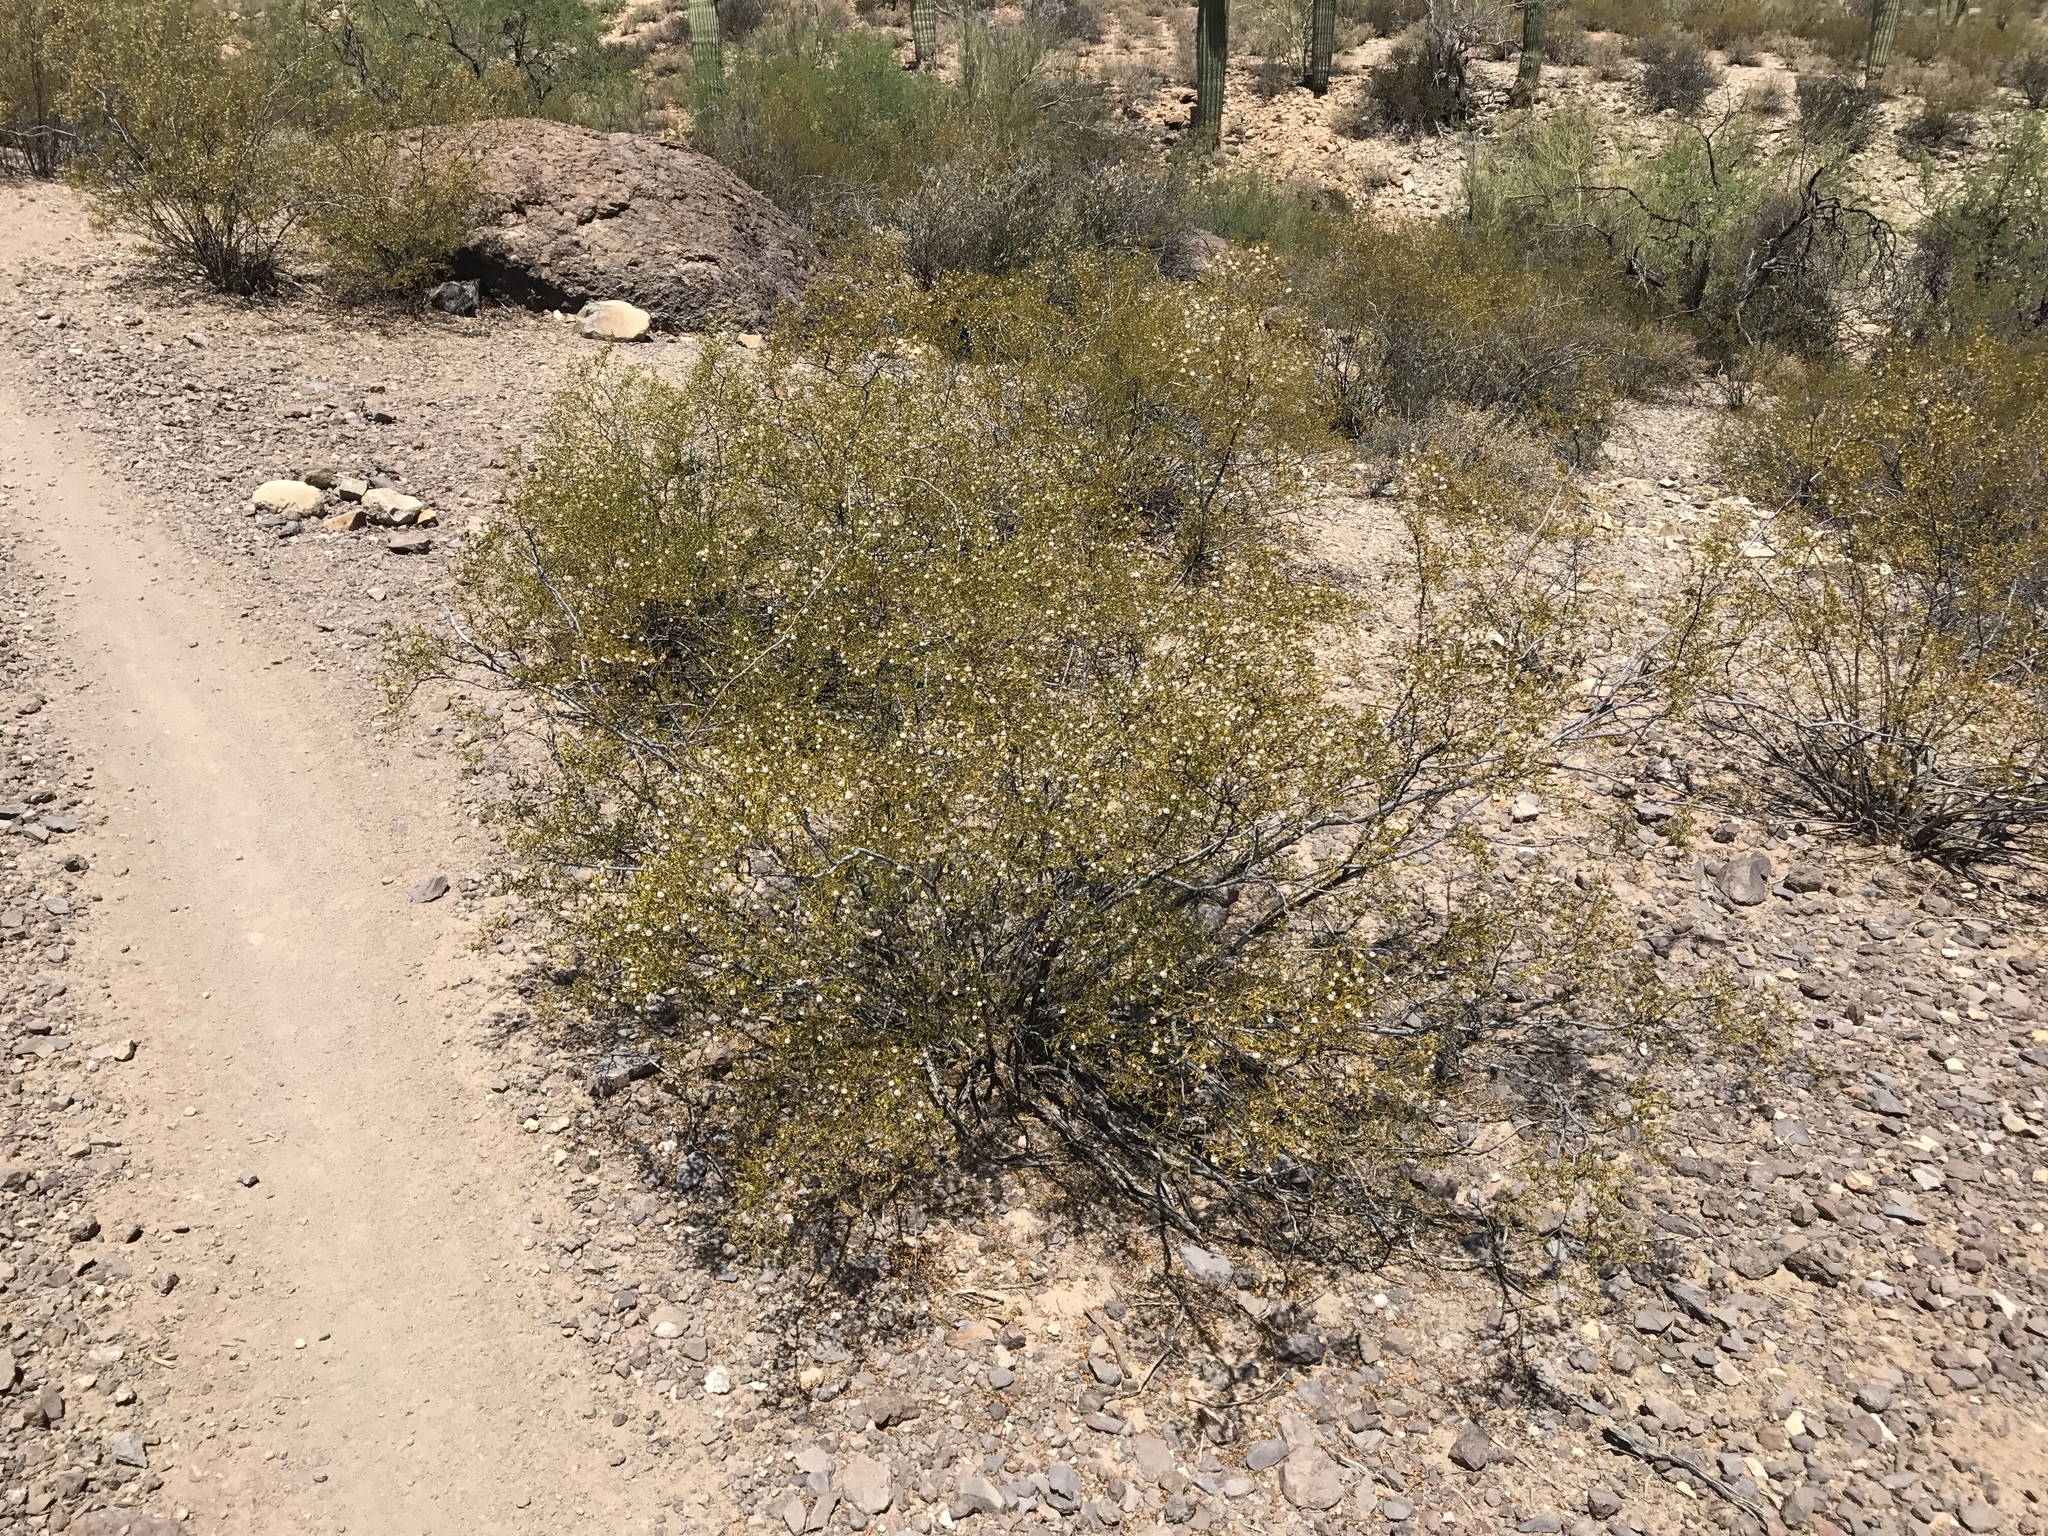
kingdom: Plantae
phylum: Tracheophyta
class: Magnoliopsida
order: Zygophyllales
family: Zygophyllaceae
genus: Larrea
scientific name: Larrea tridentata
